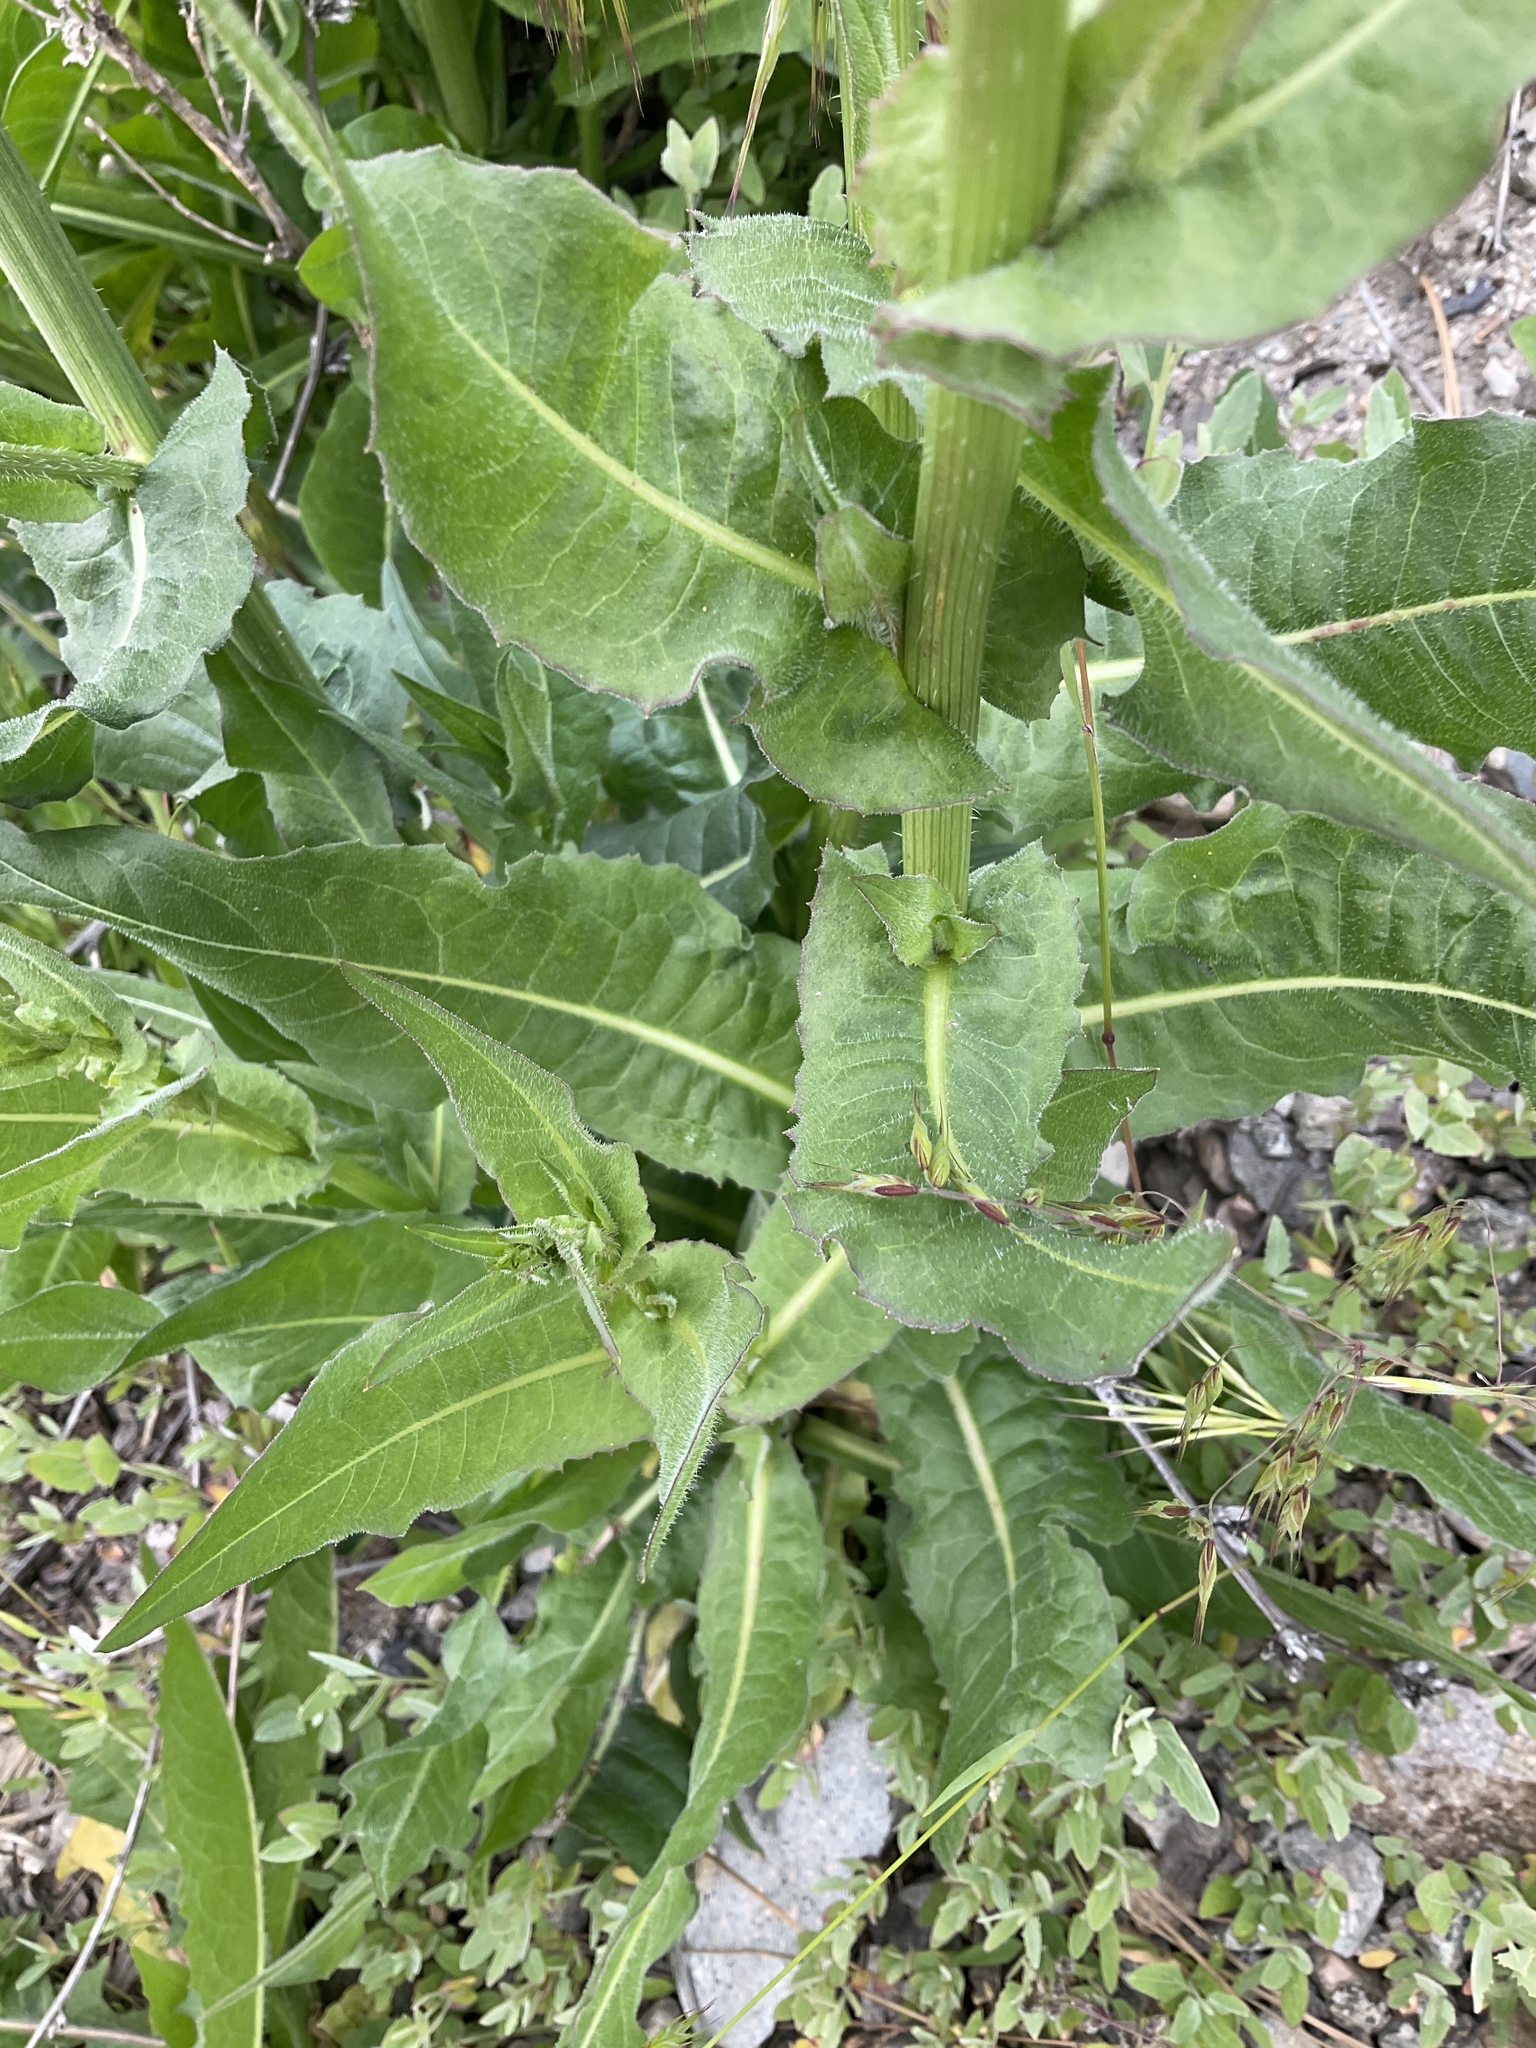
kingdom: Plantae
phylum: Tracheophyta
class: Magnoliopsida
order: Asterales
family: Asteraceae
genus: Cichorium
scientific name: Cichorium intybus
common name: Chicory
